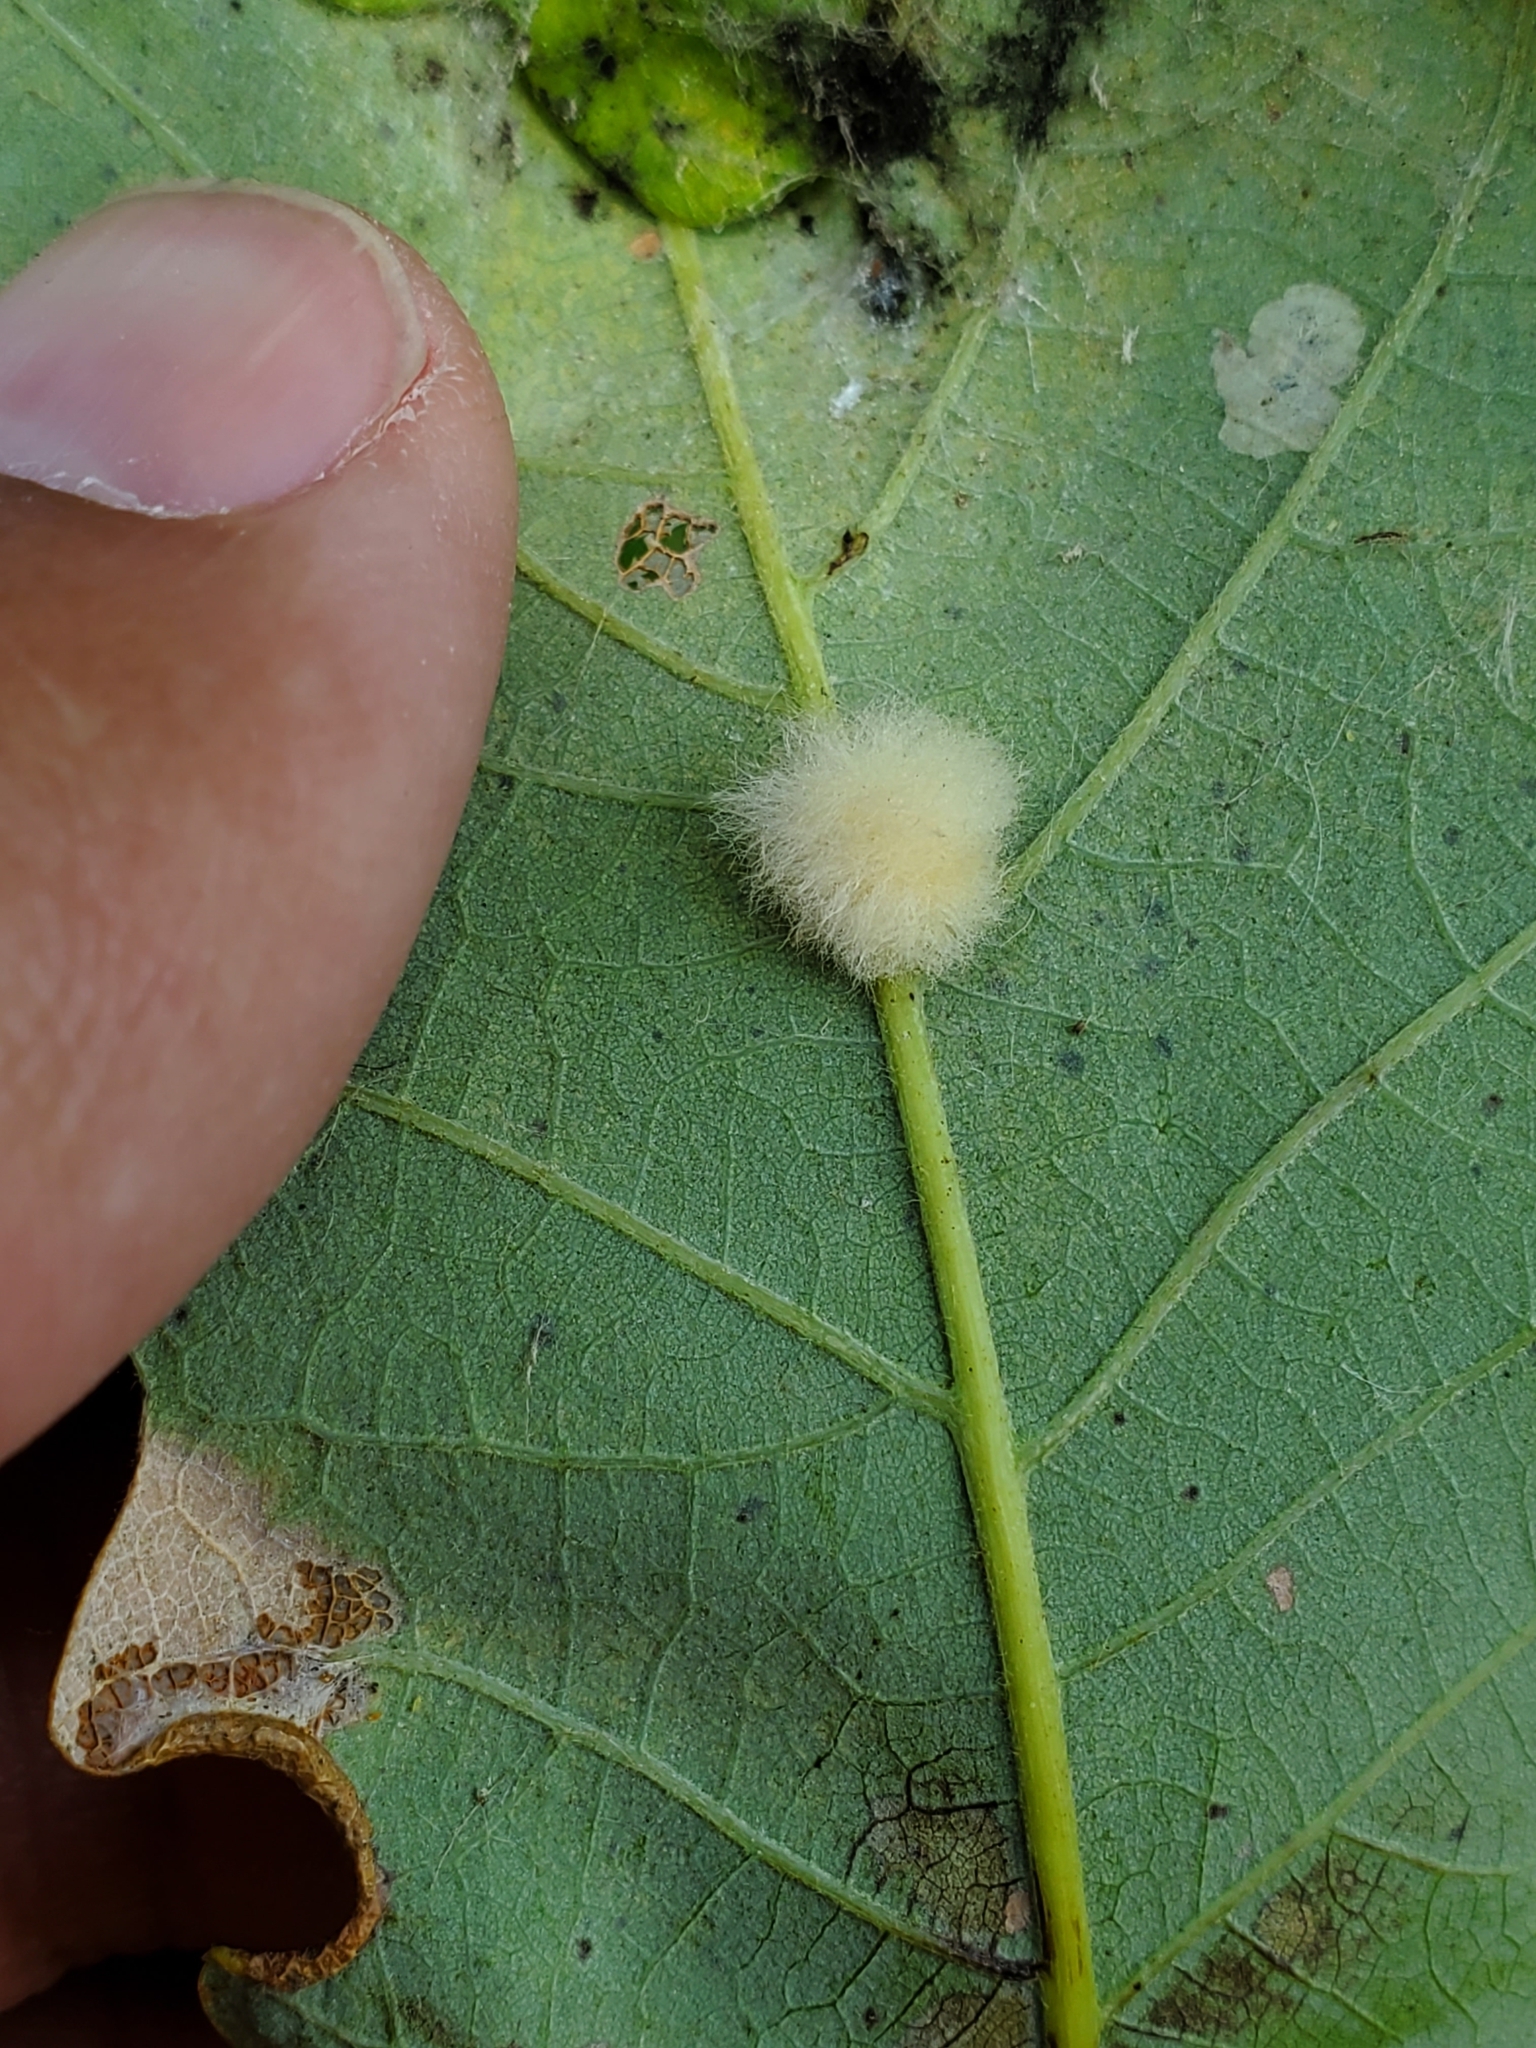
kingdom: Animalia
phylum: Arthropoda
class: Insecta
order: Hymenoptera
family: Cynipidae
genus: Andricus
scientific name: Andricus Druon ignotum
